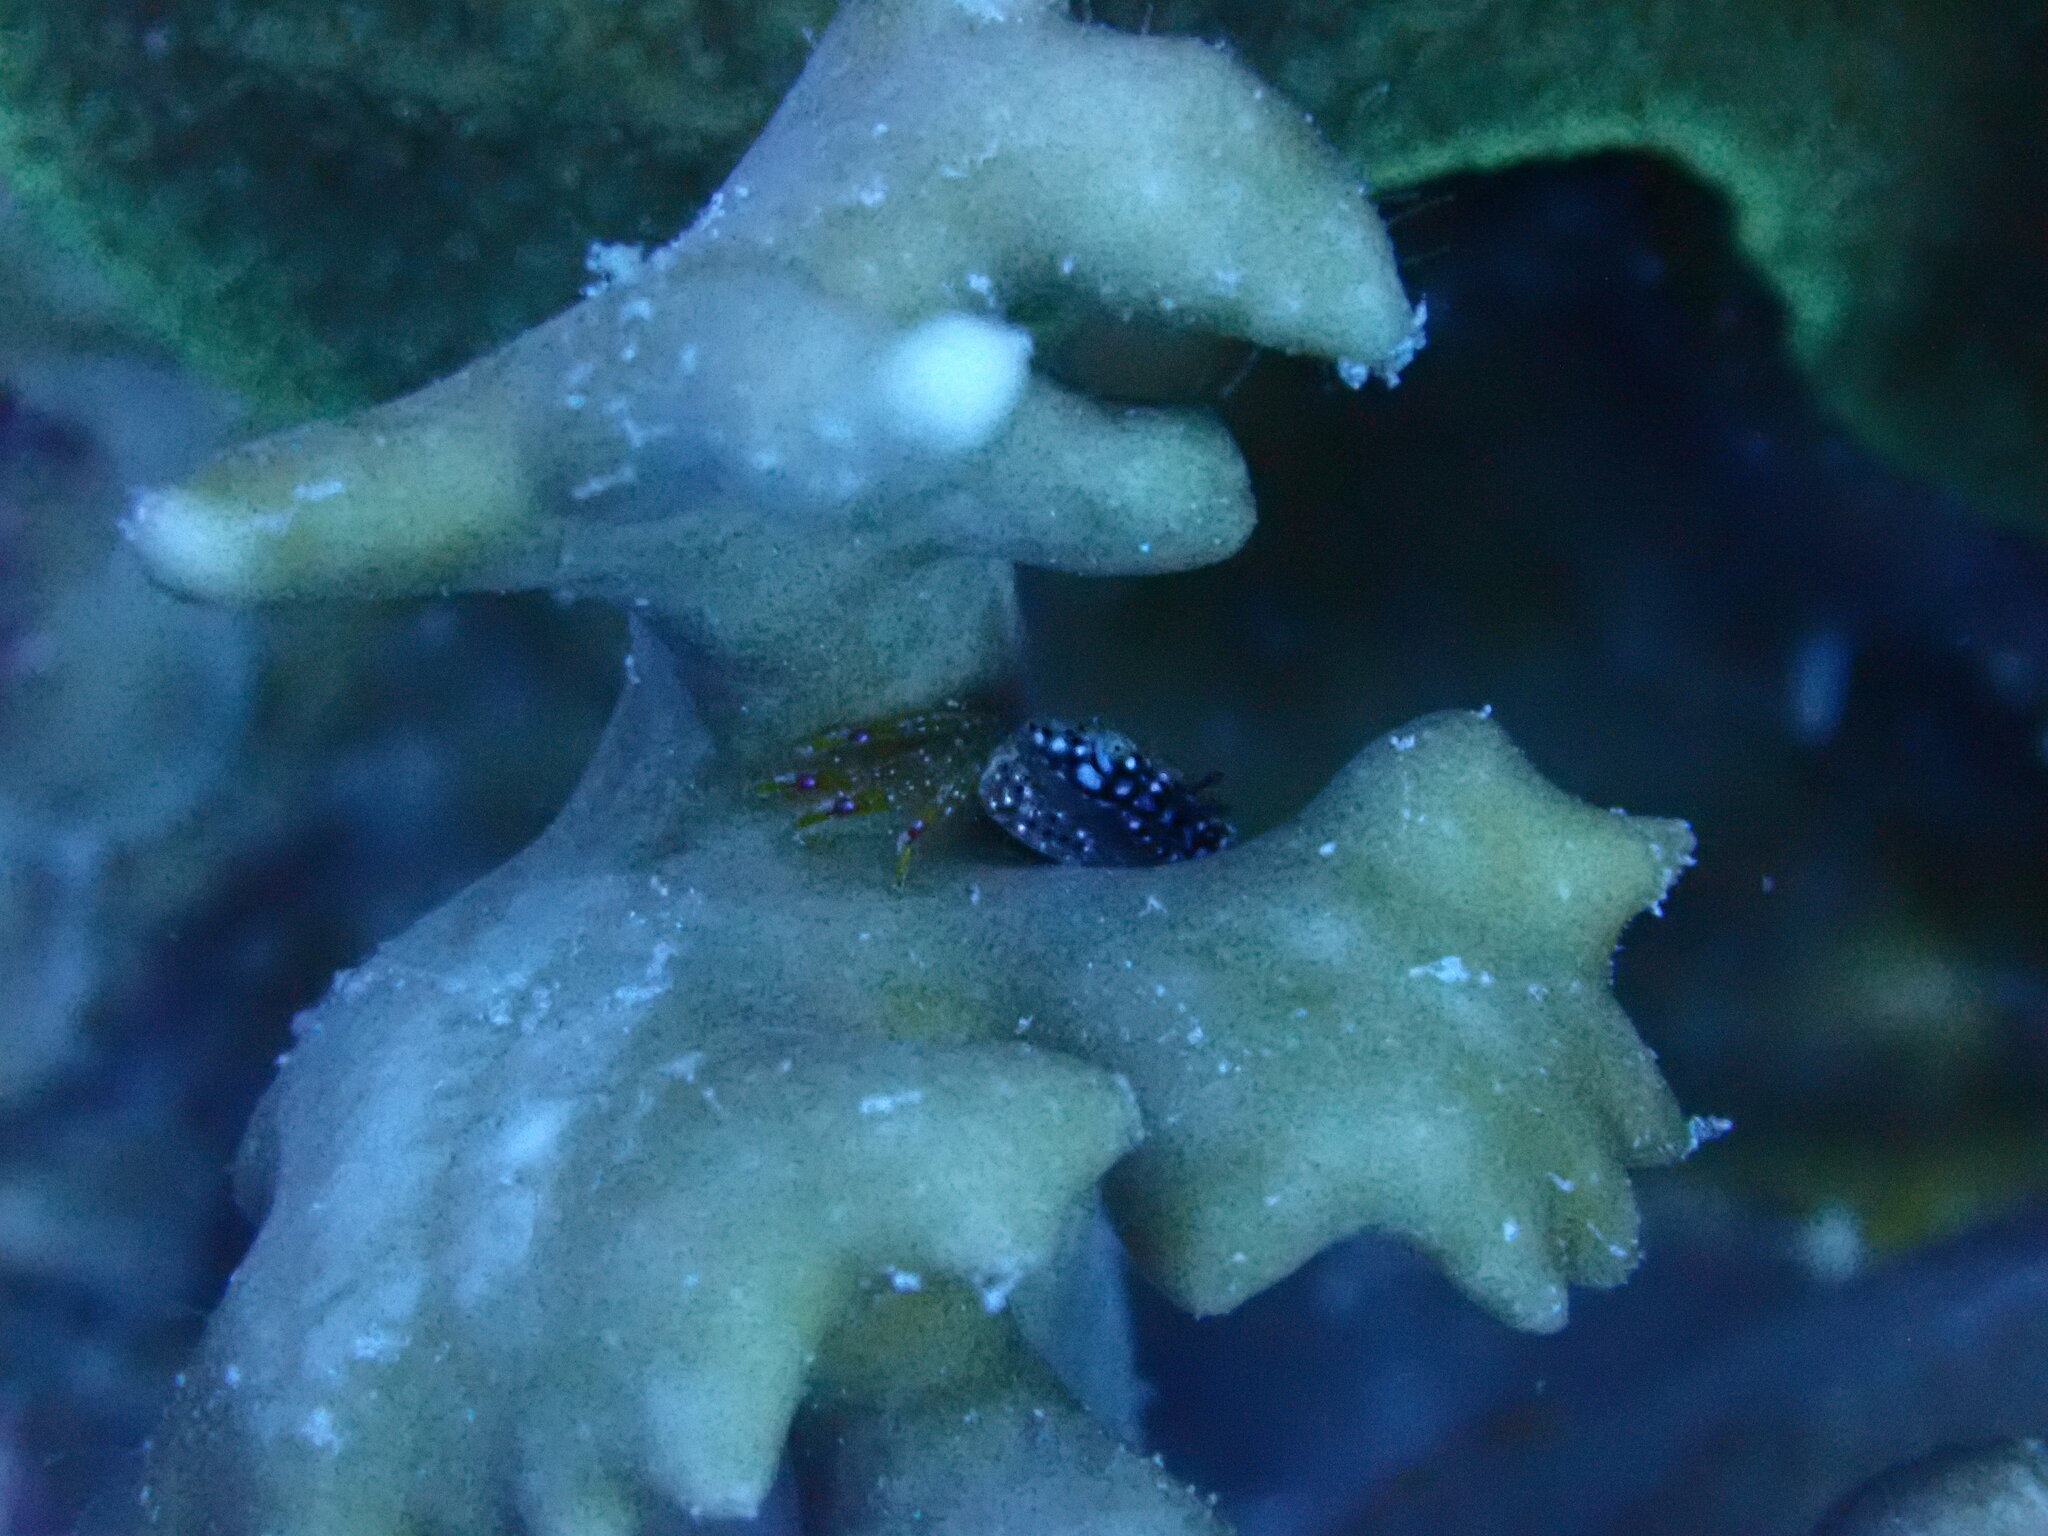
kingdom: Animalia
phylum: Arthropoda
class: Malacostraca
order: Decapoda
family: Domeciidae
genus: Domecia
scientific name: Domecia acanthophora
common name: Elkhorn coral crab
